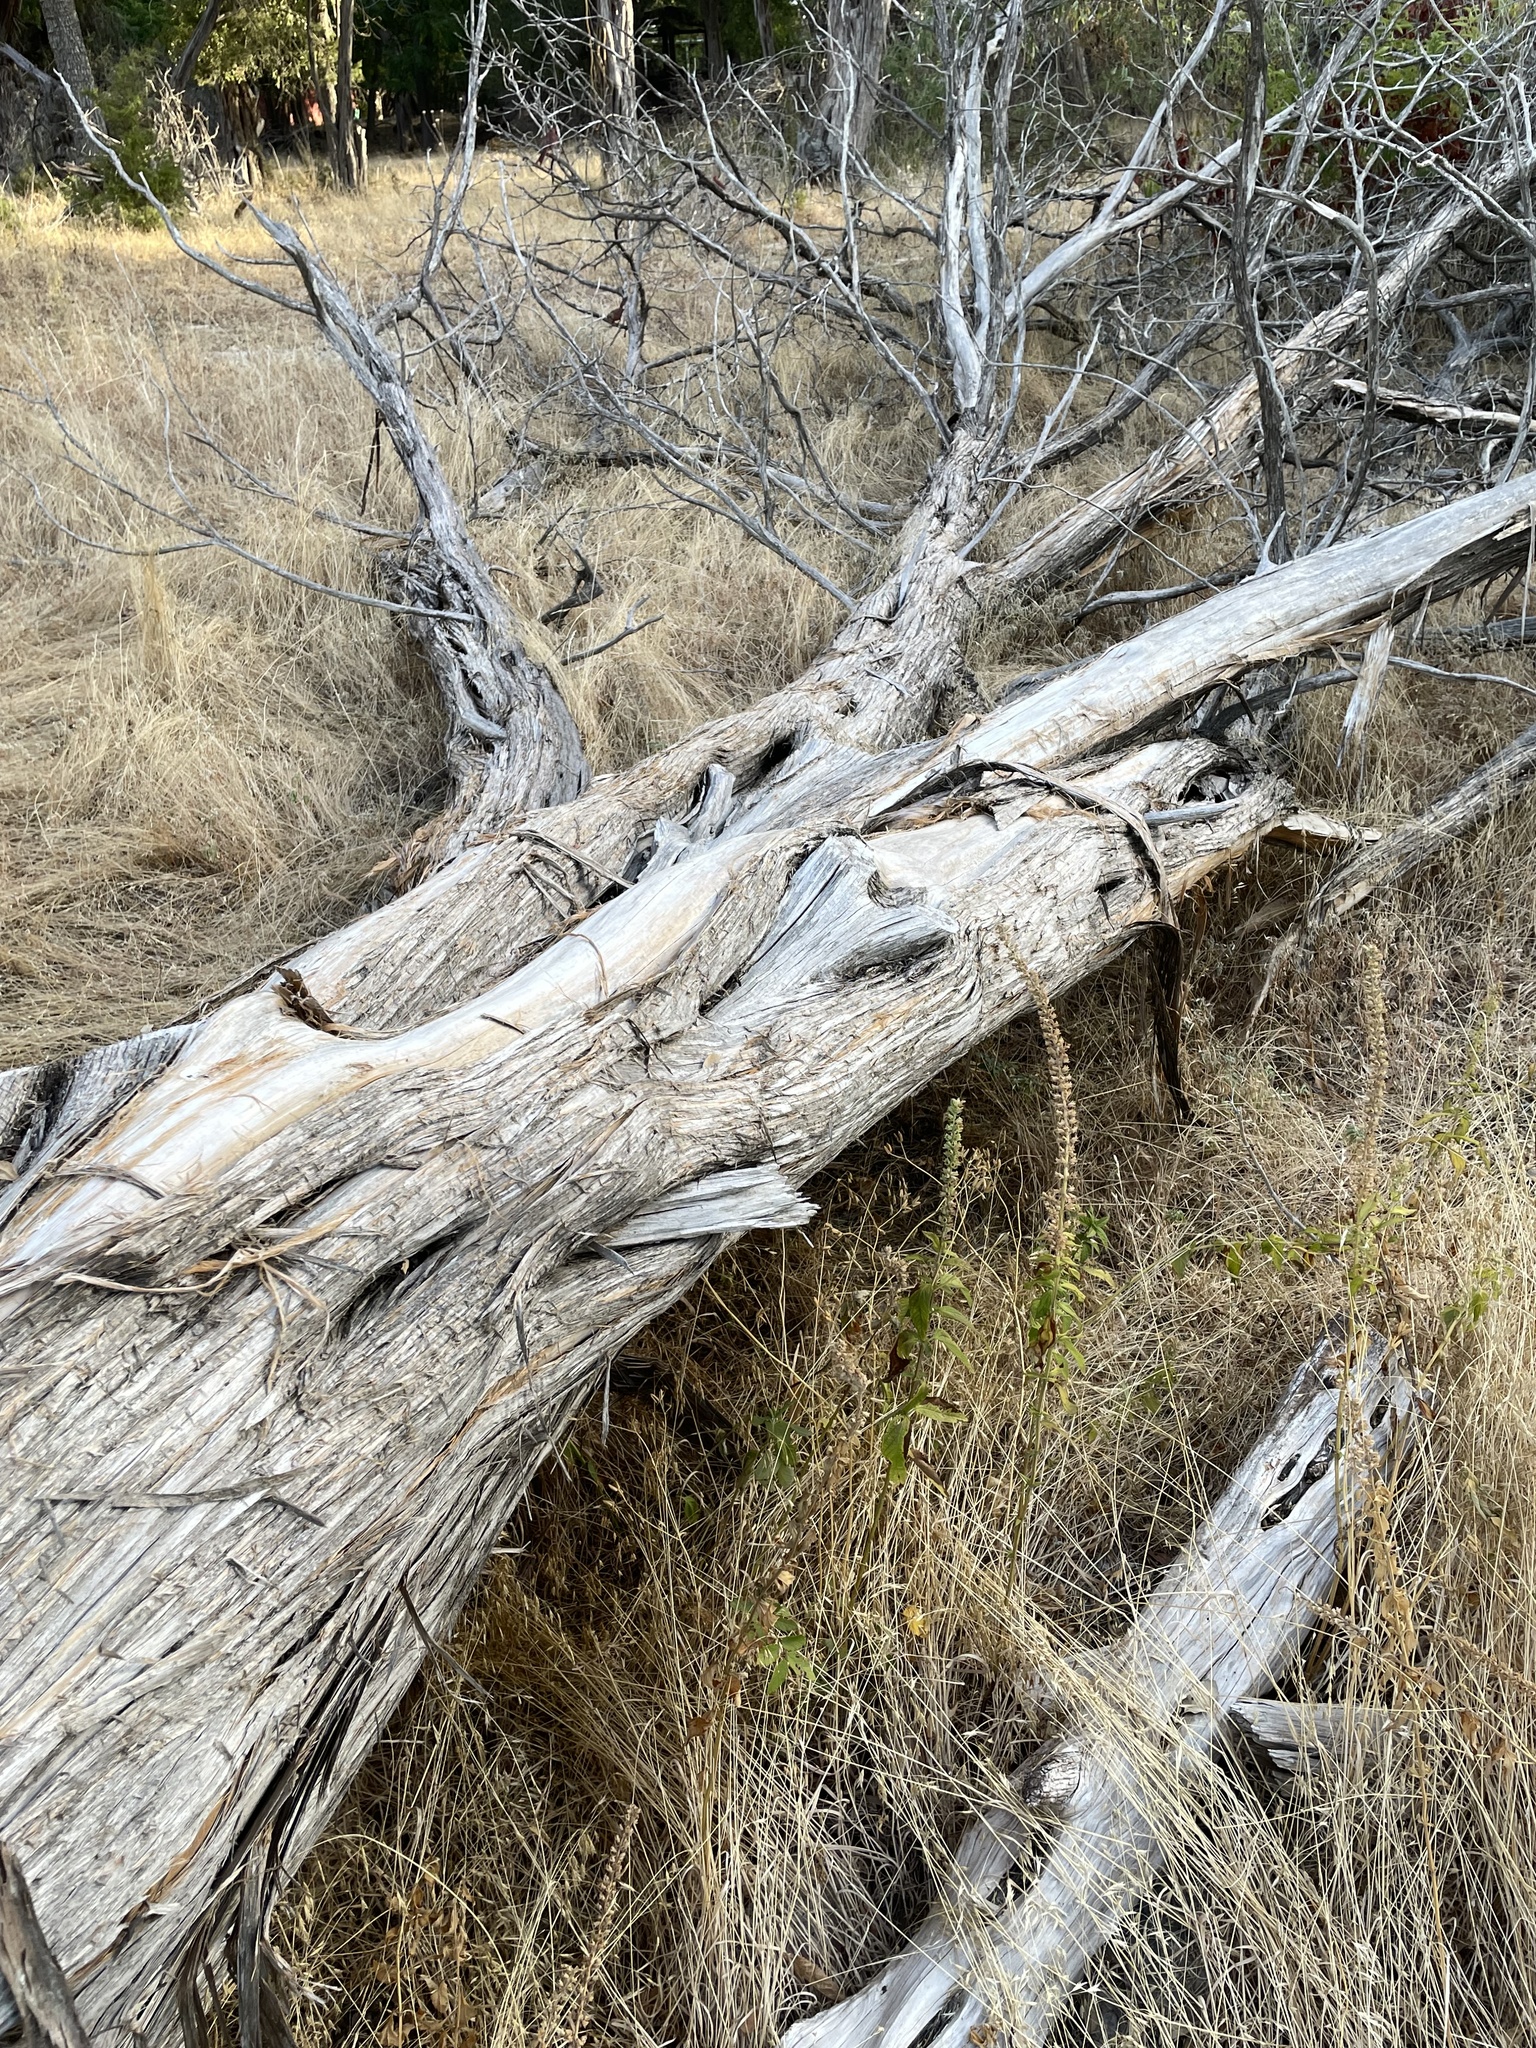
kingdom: Plantae
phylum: Tracheophyta
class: Pinopsida
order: Pinales
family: Cupressaceae
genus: Juniperus
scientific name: Juniperus ashei
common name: Mexican juniper
